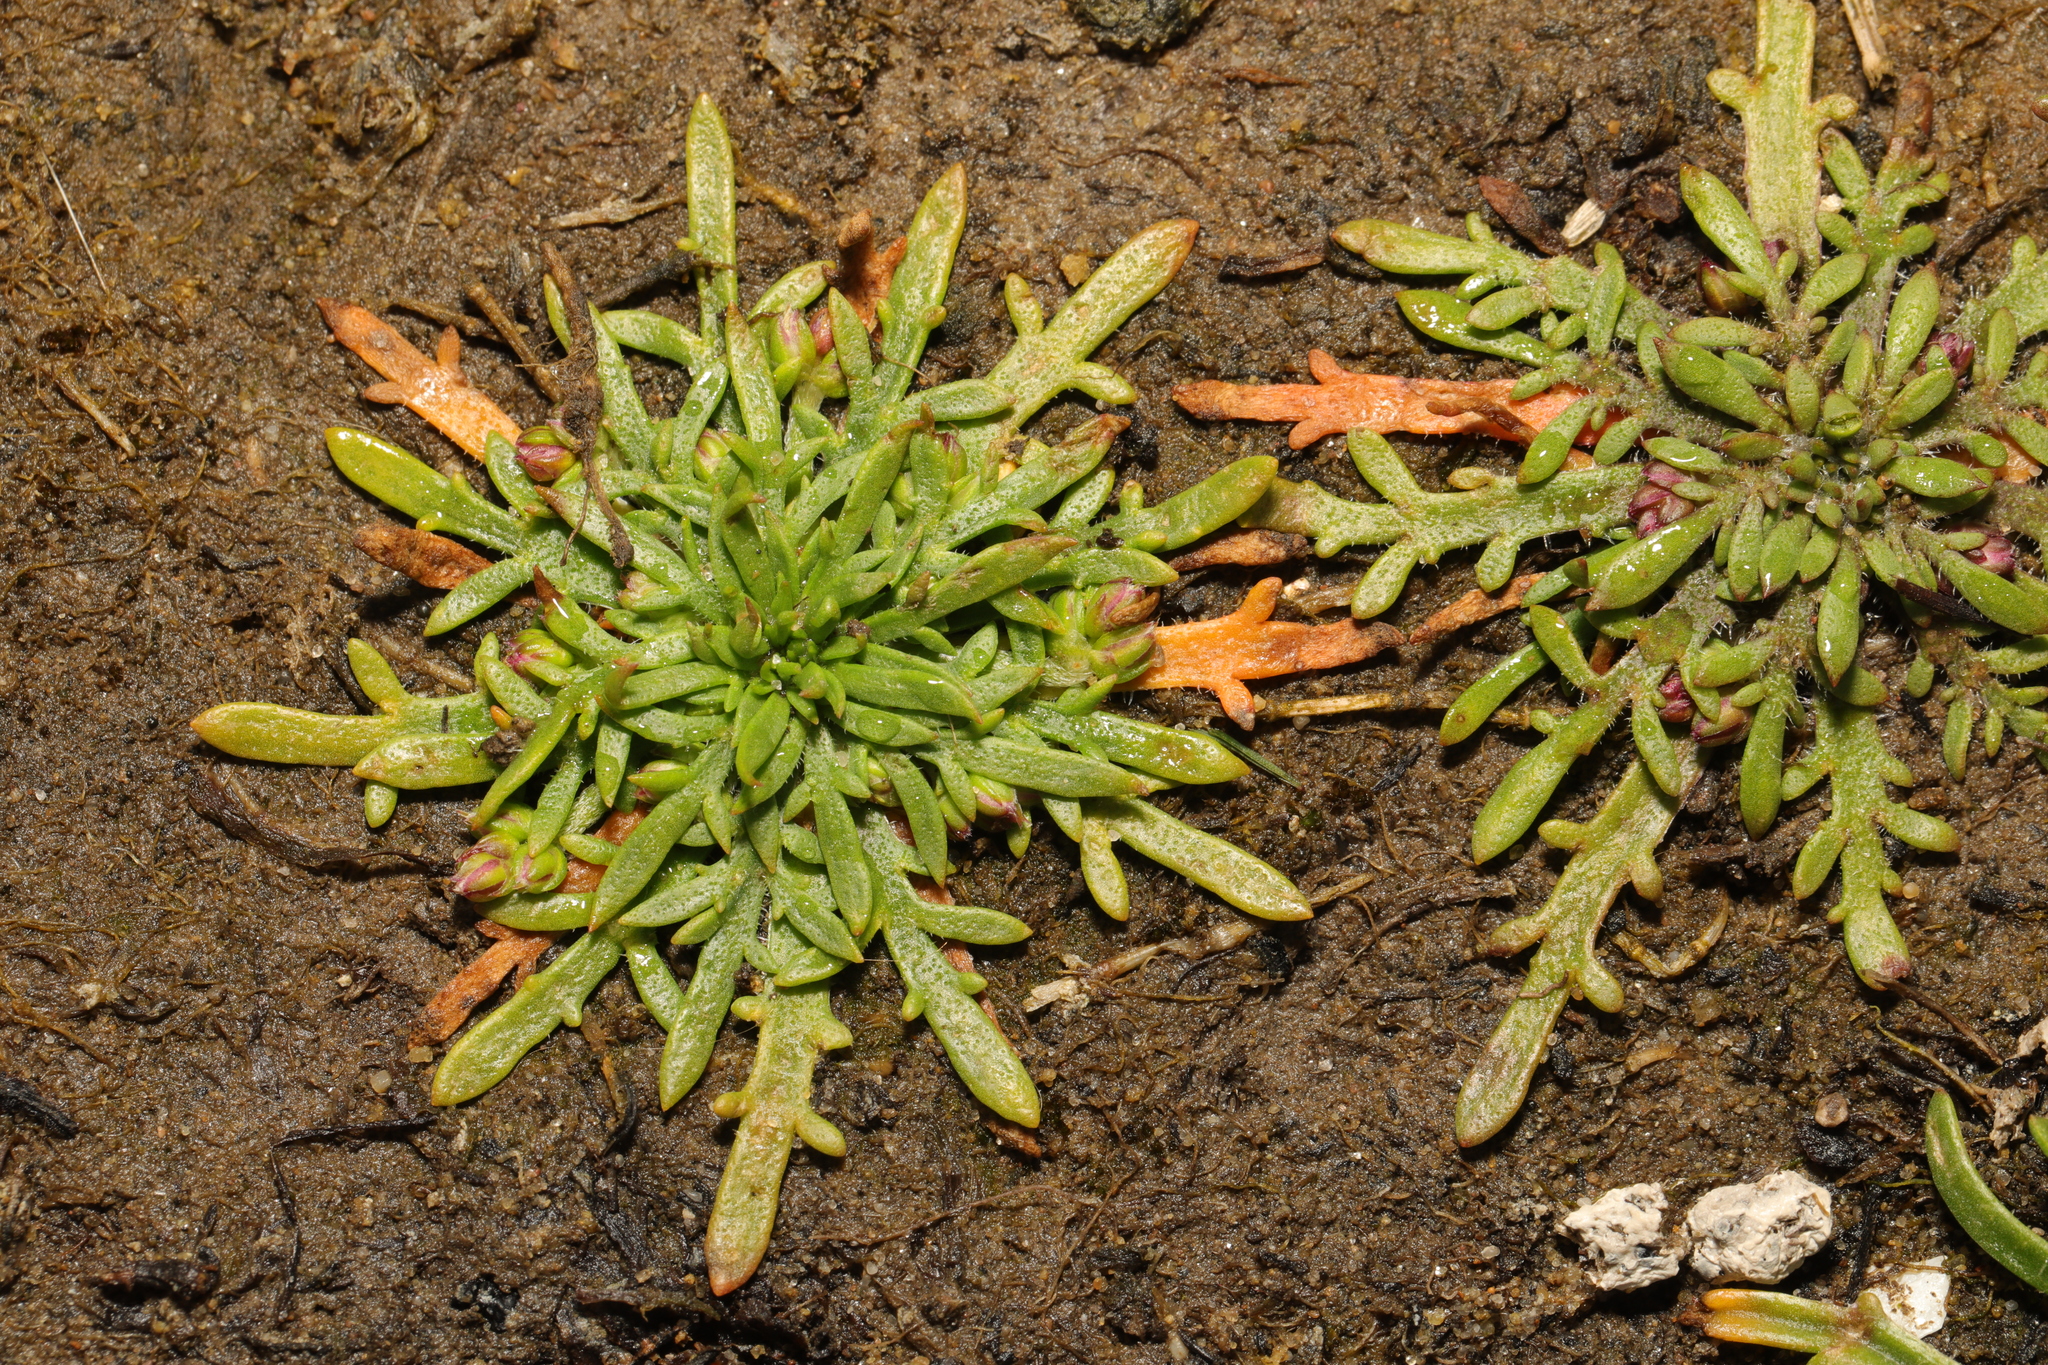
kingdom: Plantae
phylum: Tracheophyta
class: Magnoliopsida
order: Lamiales
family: Plantaginaceae
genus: Plantago
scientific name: Plantago coronopus
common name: Buck's-horn plantain
